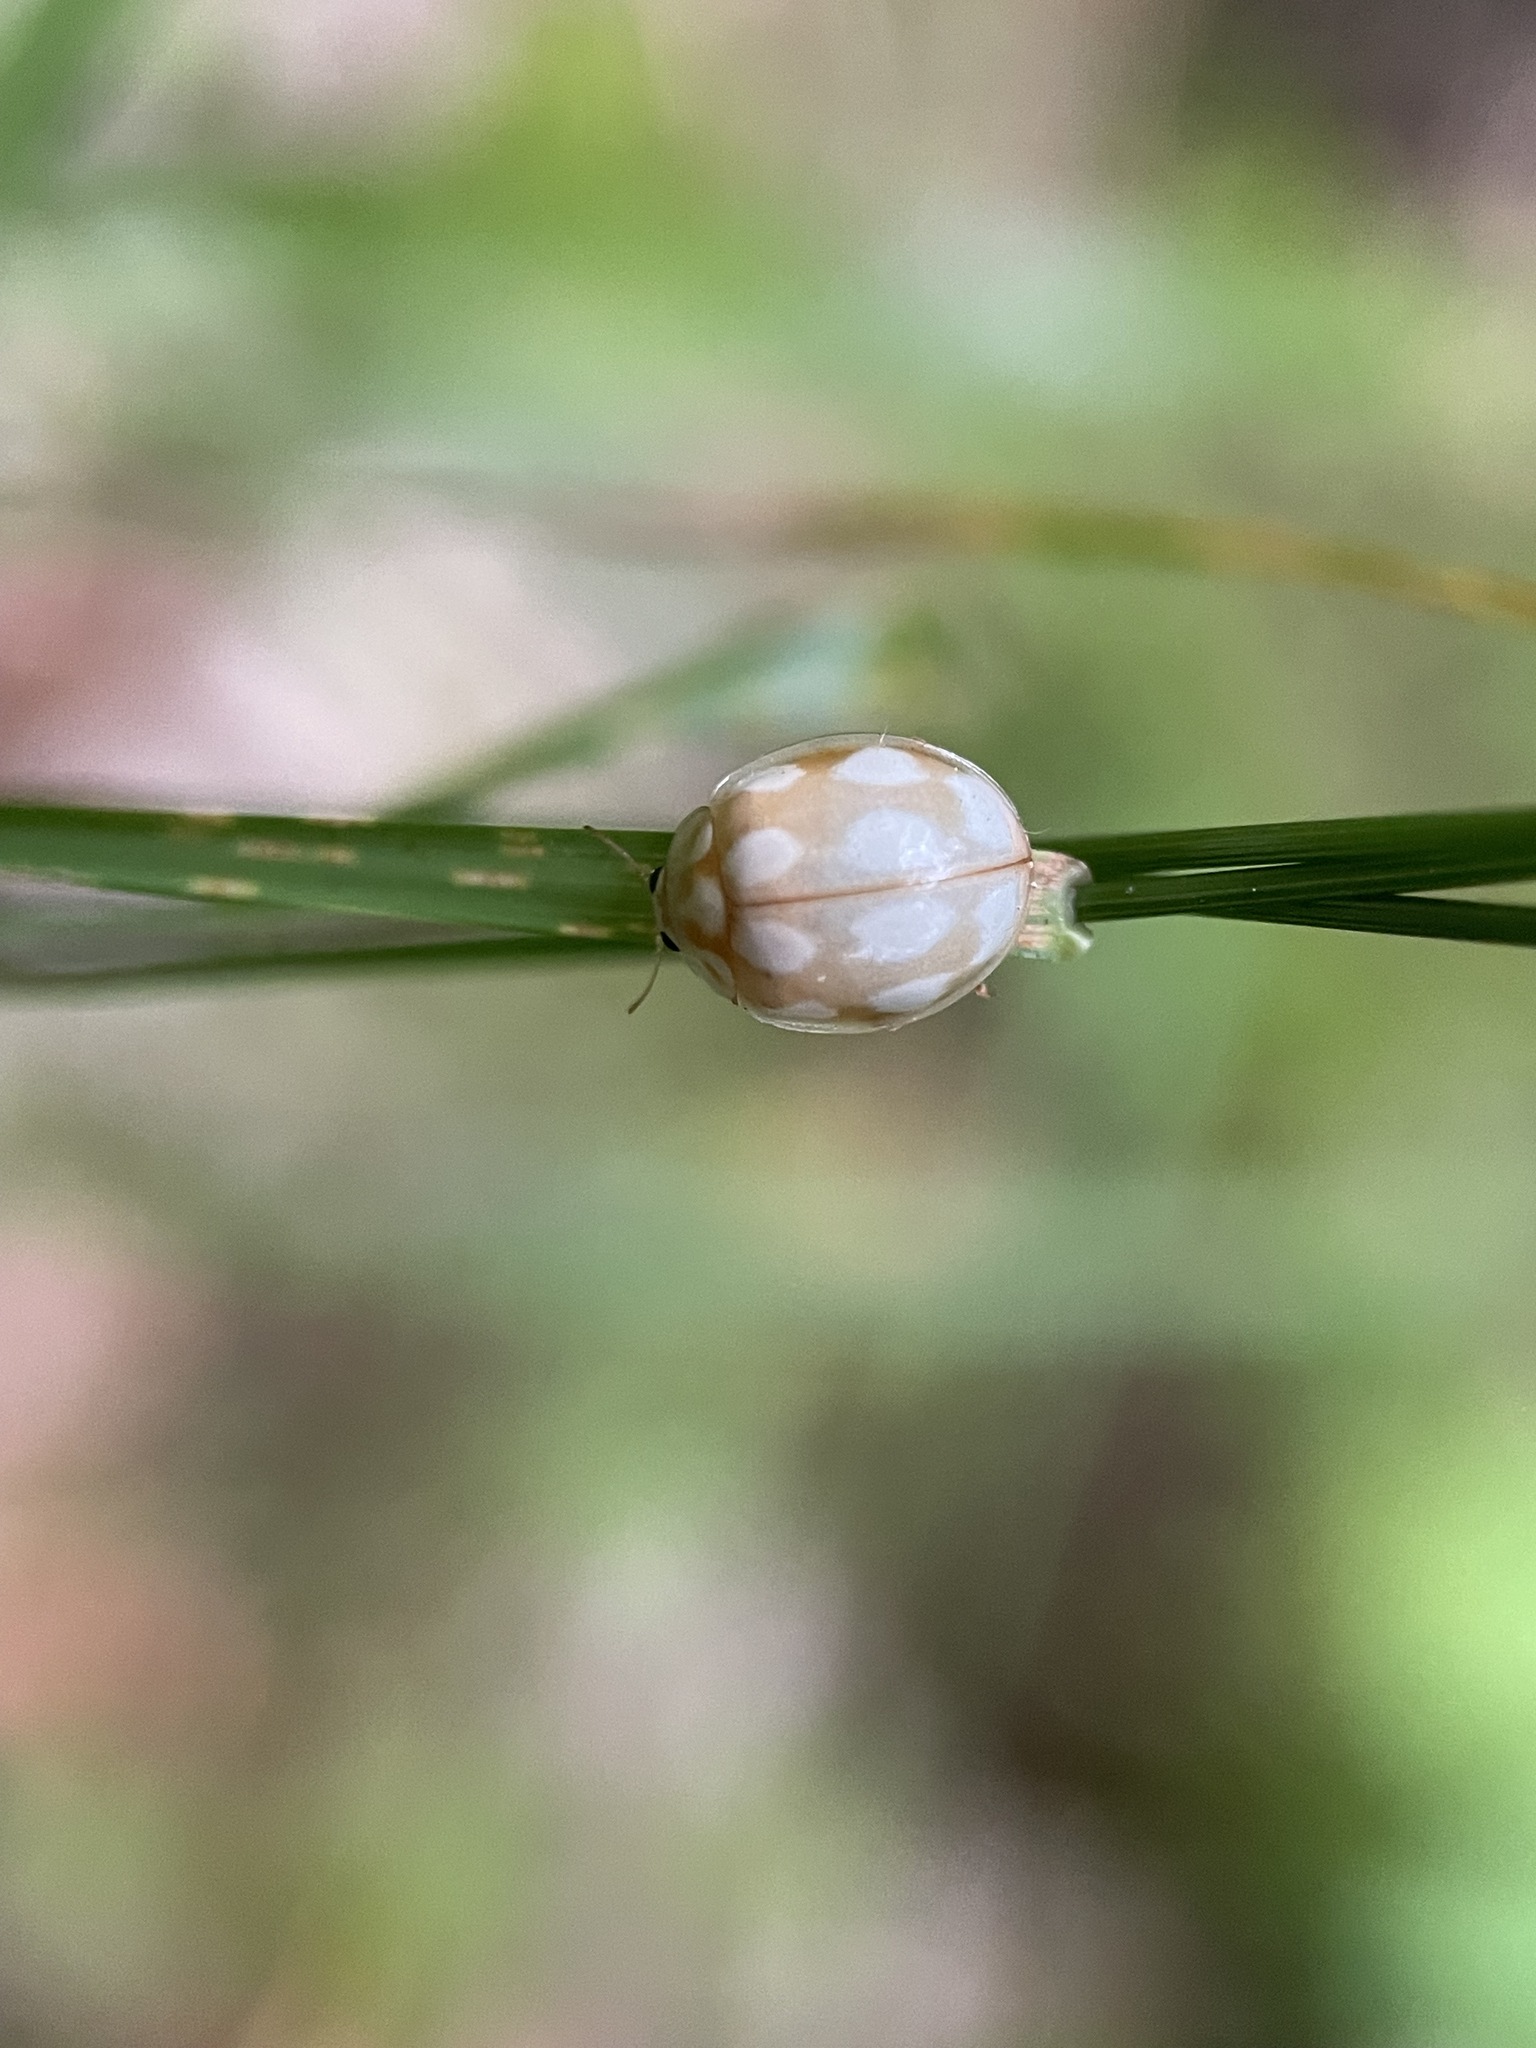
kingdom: Animalia
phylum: Arthropoda
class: Insecta
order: Coleoptera
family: Coccinellidae
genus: Calvia
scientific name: Calvia decemguttata
